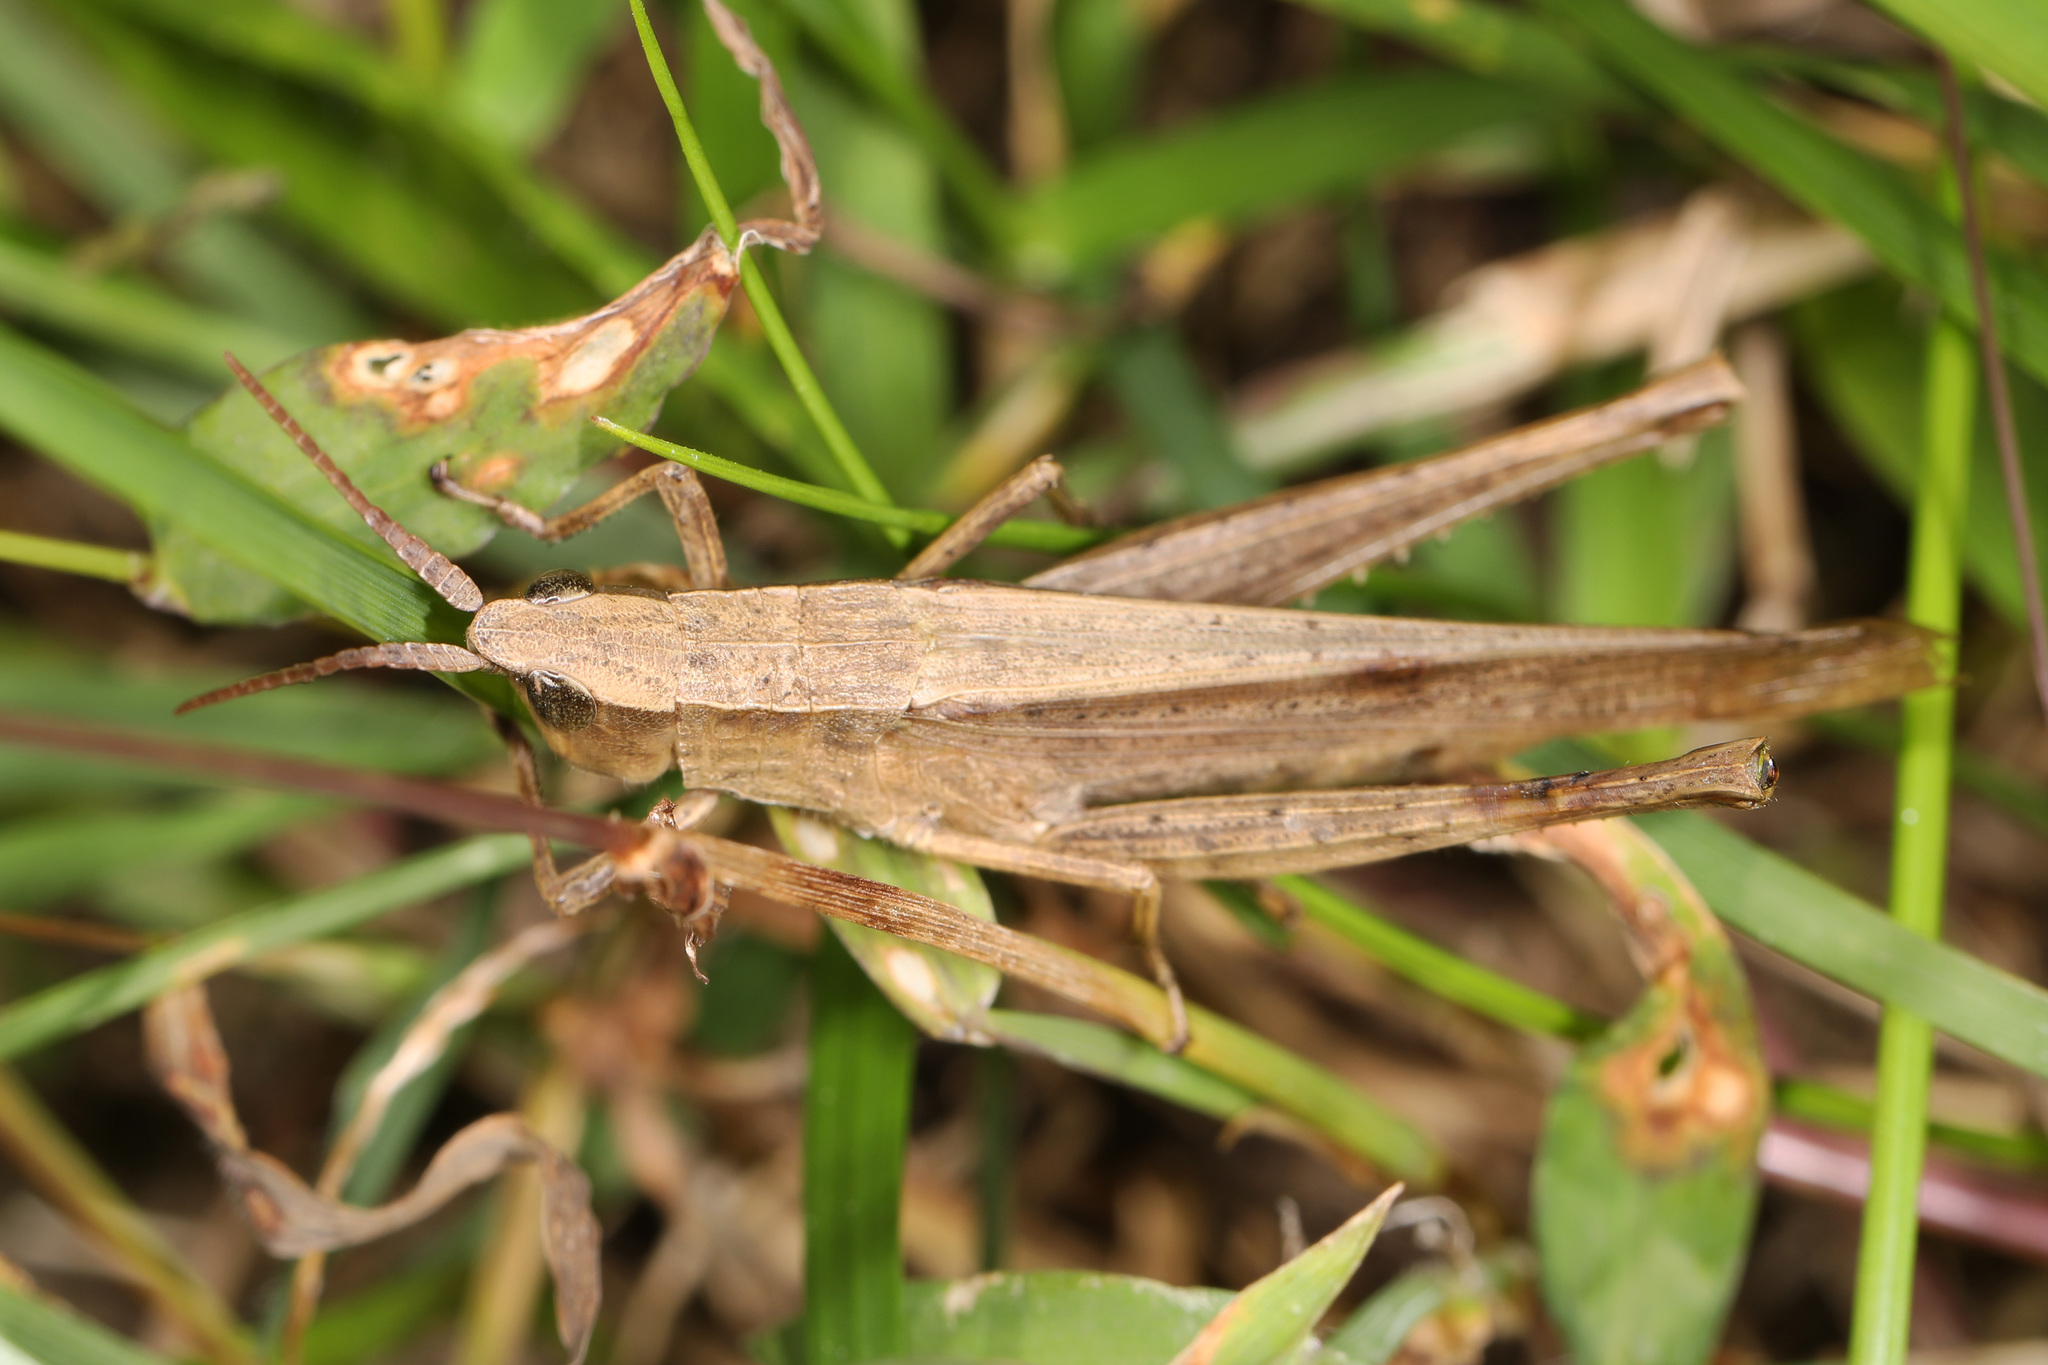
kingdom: Animalia
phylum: Arthropoda
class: Insecta
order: Orthoptera
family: Acrididae
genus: Metaleptea
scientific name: Metaleptea brevicornis
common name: Clipped-wing grasshopper
